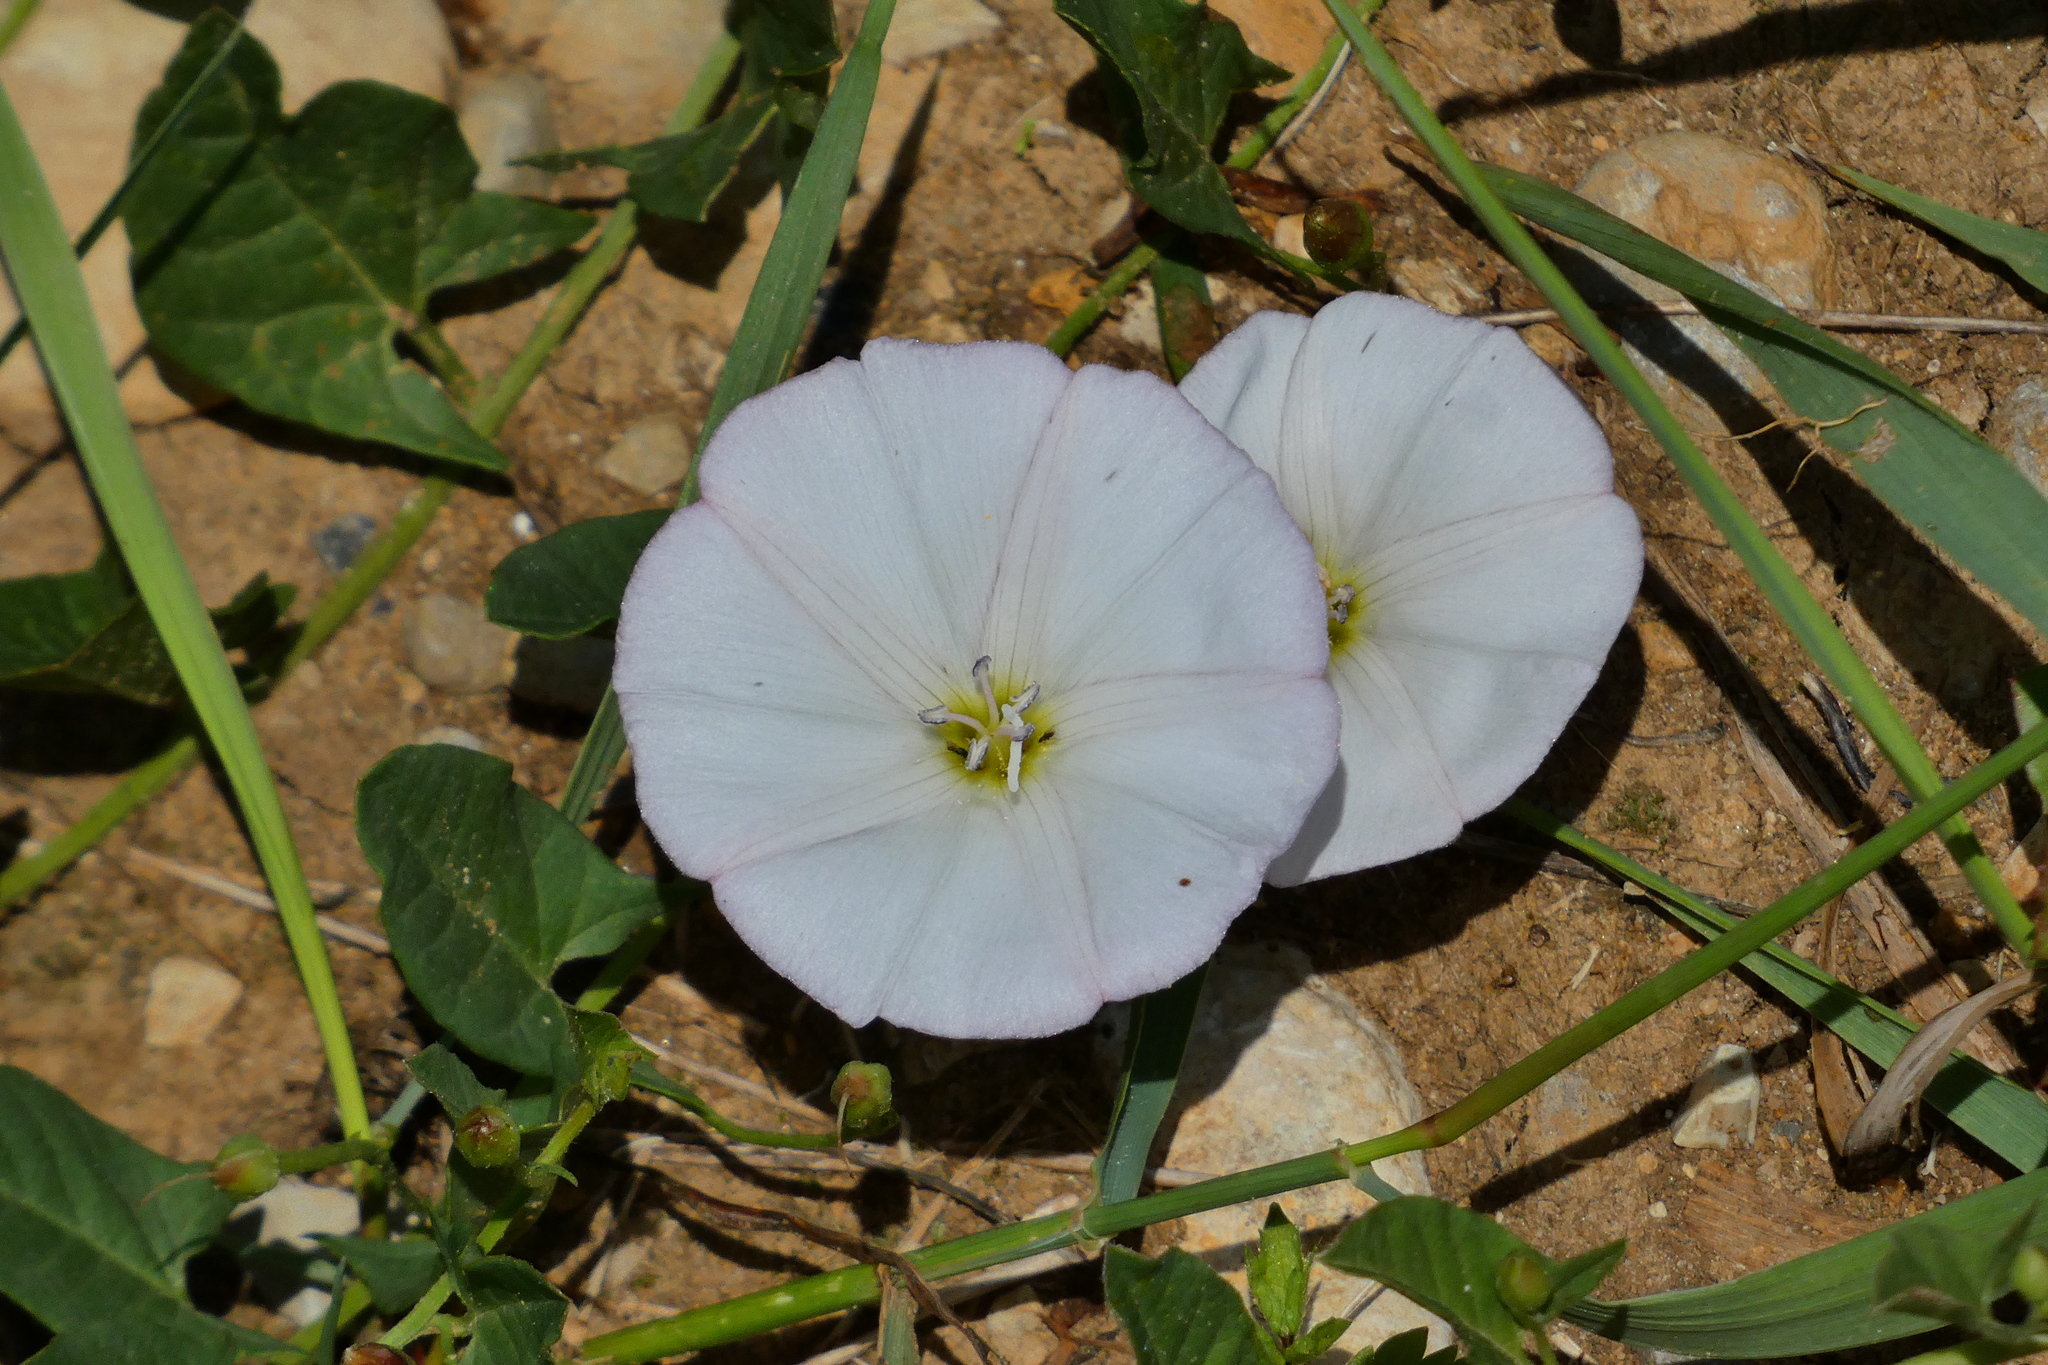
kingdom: Plantae
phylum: Tracheophyta
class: Magnoliopsida
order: Solanales
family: Convolvulaceae
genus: Convolvulus
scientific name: Convolvulus arvensis
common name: Field bindweed
